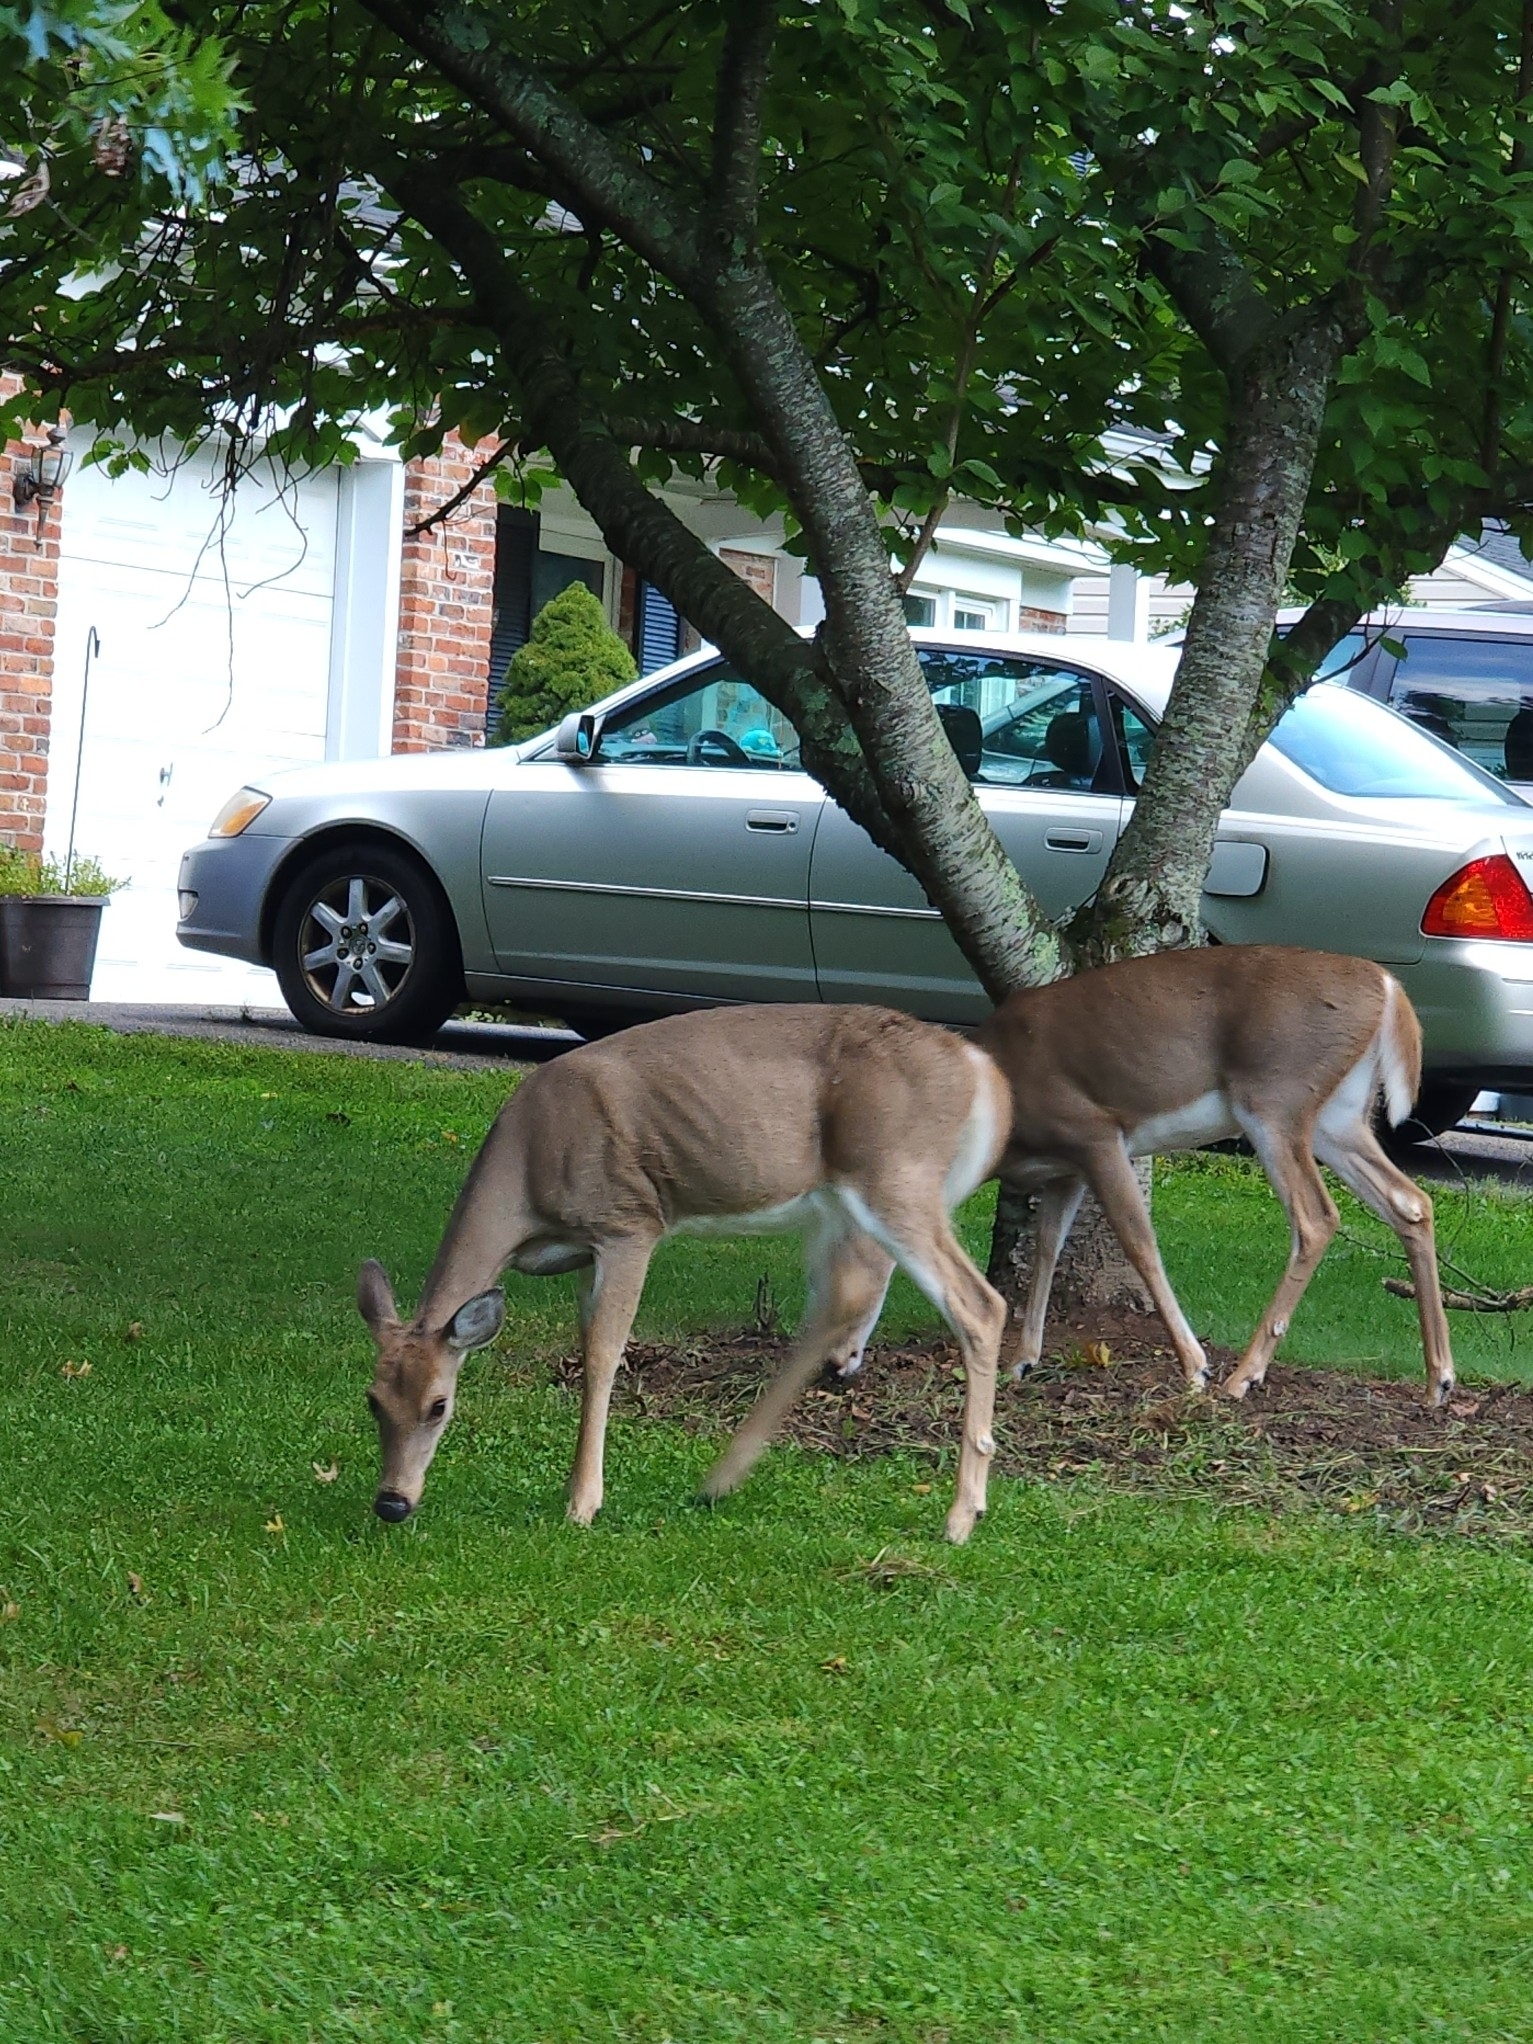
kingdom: Animalia
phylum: Chordata
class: Mammalia
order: Artiodactyla
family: Cervidae
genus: Odocoileus
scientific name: Odocoileus virginianus
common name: White-tailed deer
